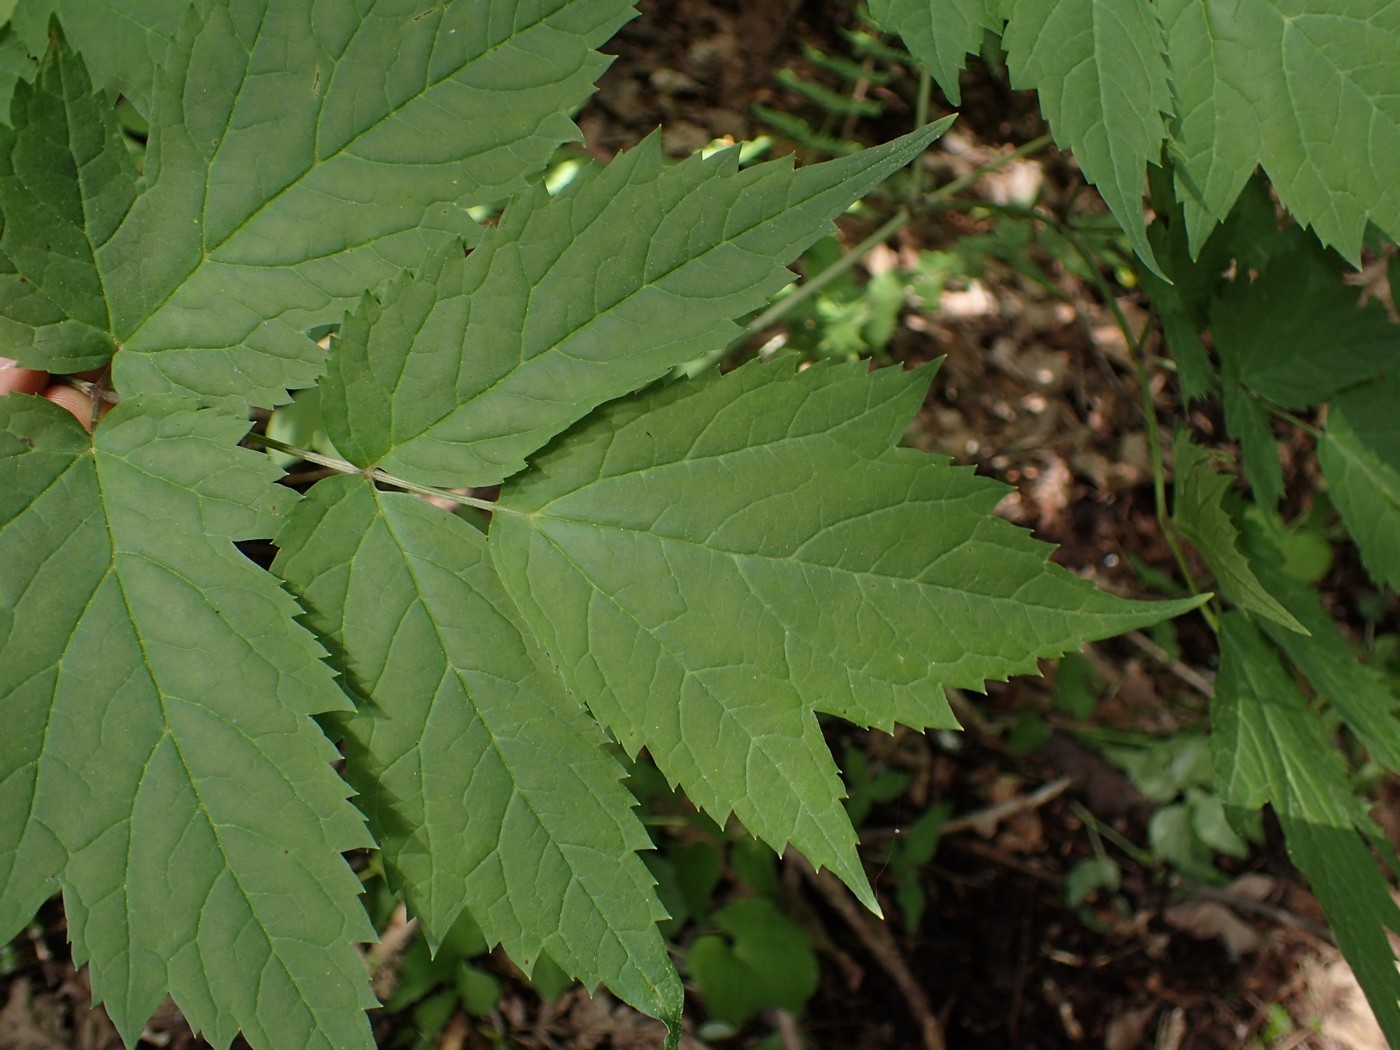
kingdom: Plantae
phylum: Tracheophyta
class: Magnoliopsida
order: Ranunculales
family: Ranunculaceae
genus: Actaea
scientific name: Actaea racemosa
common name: Black cohosh
